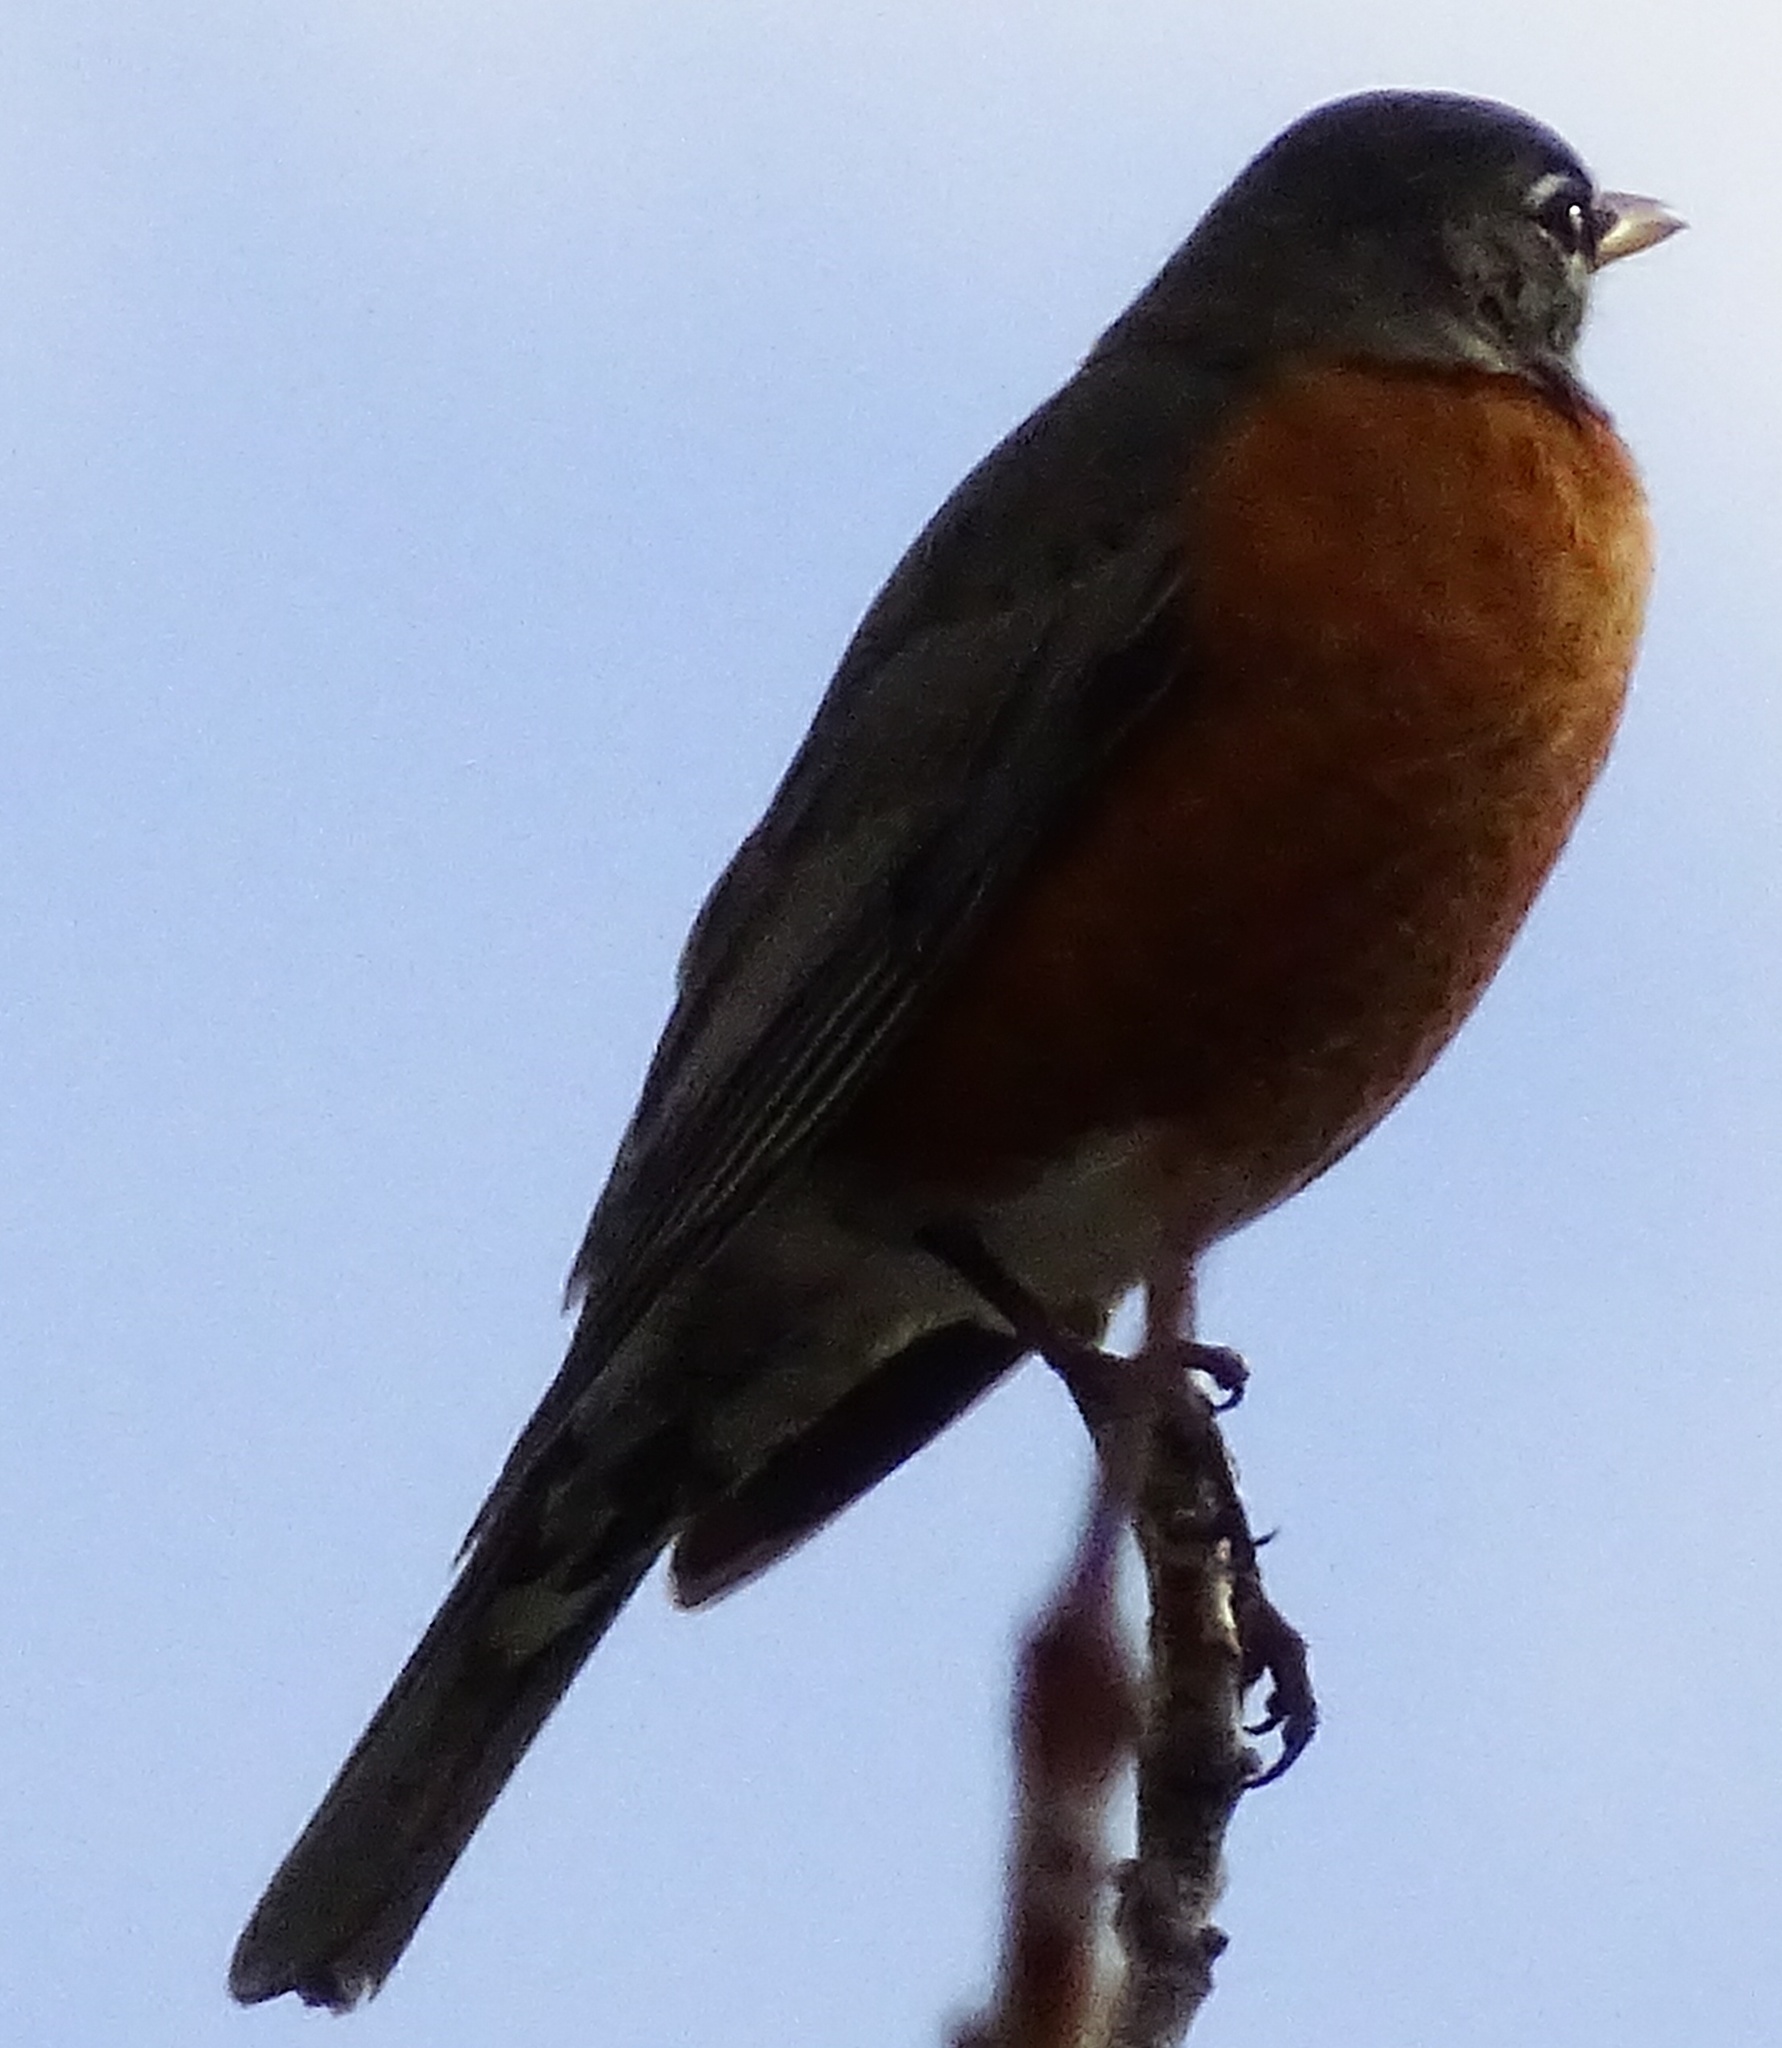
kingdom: Animalia
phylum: Chordata
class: Aves
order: Passeriformes
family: Turdidae
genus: Turdus
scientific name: Turdus migratorius
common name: American robin
